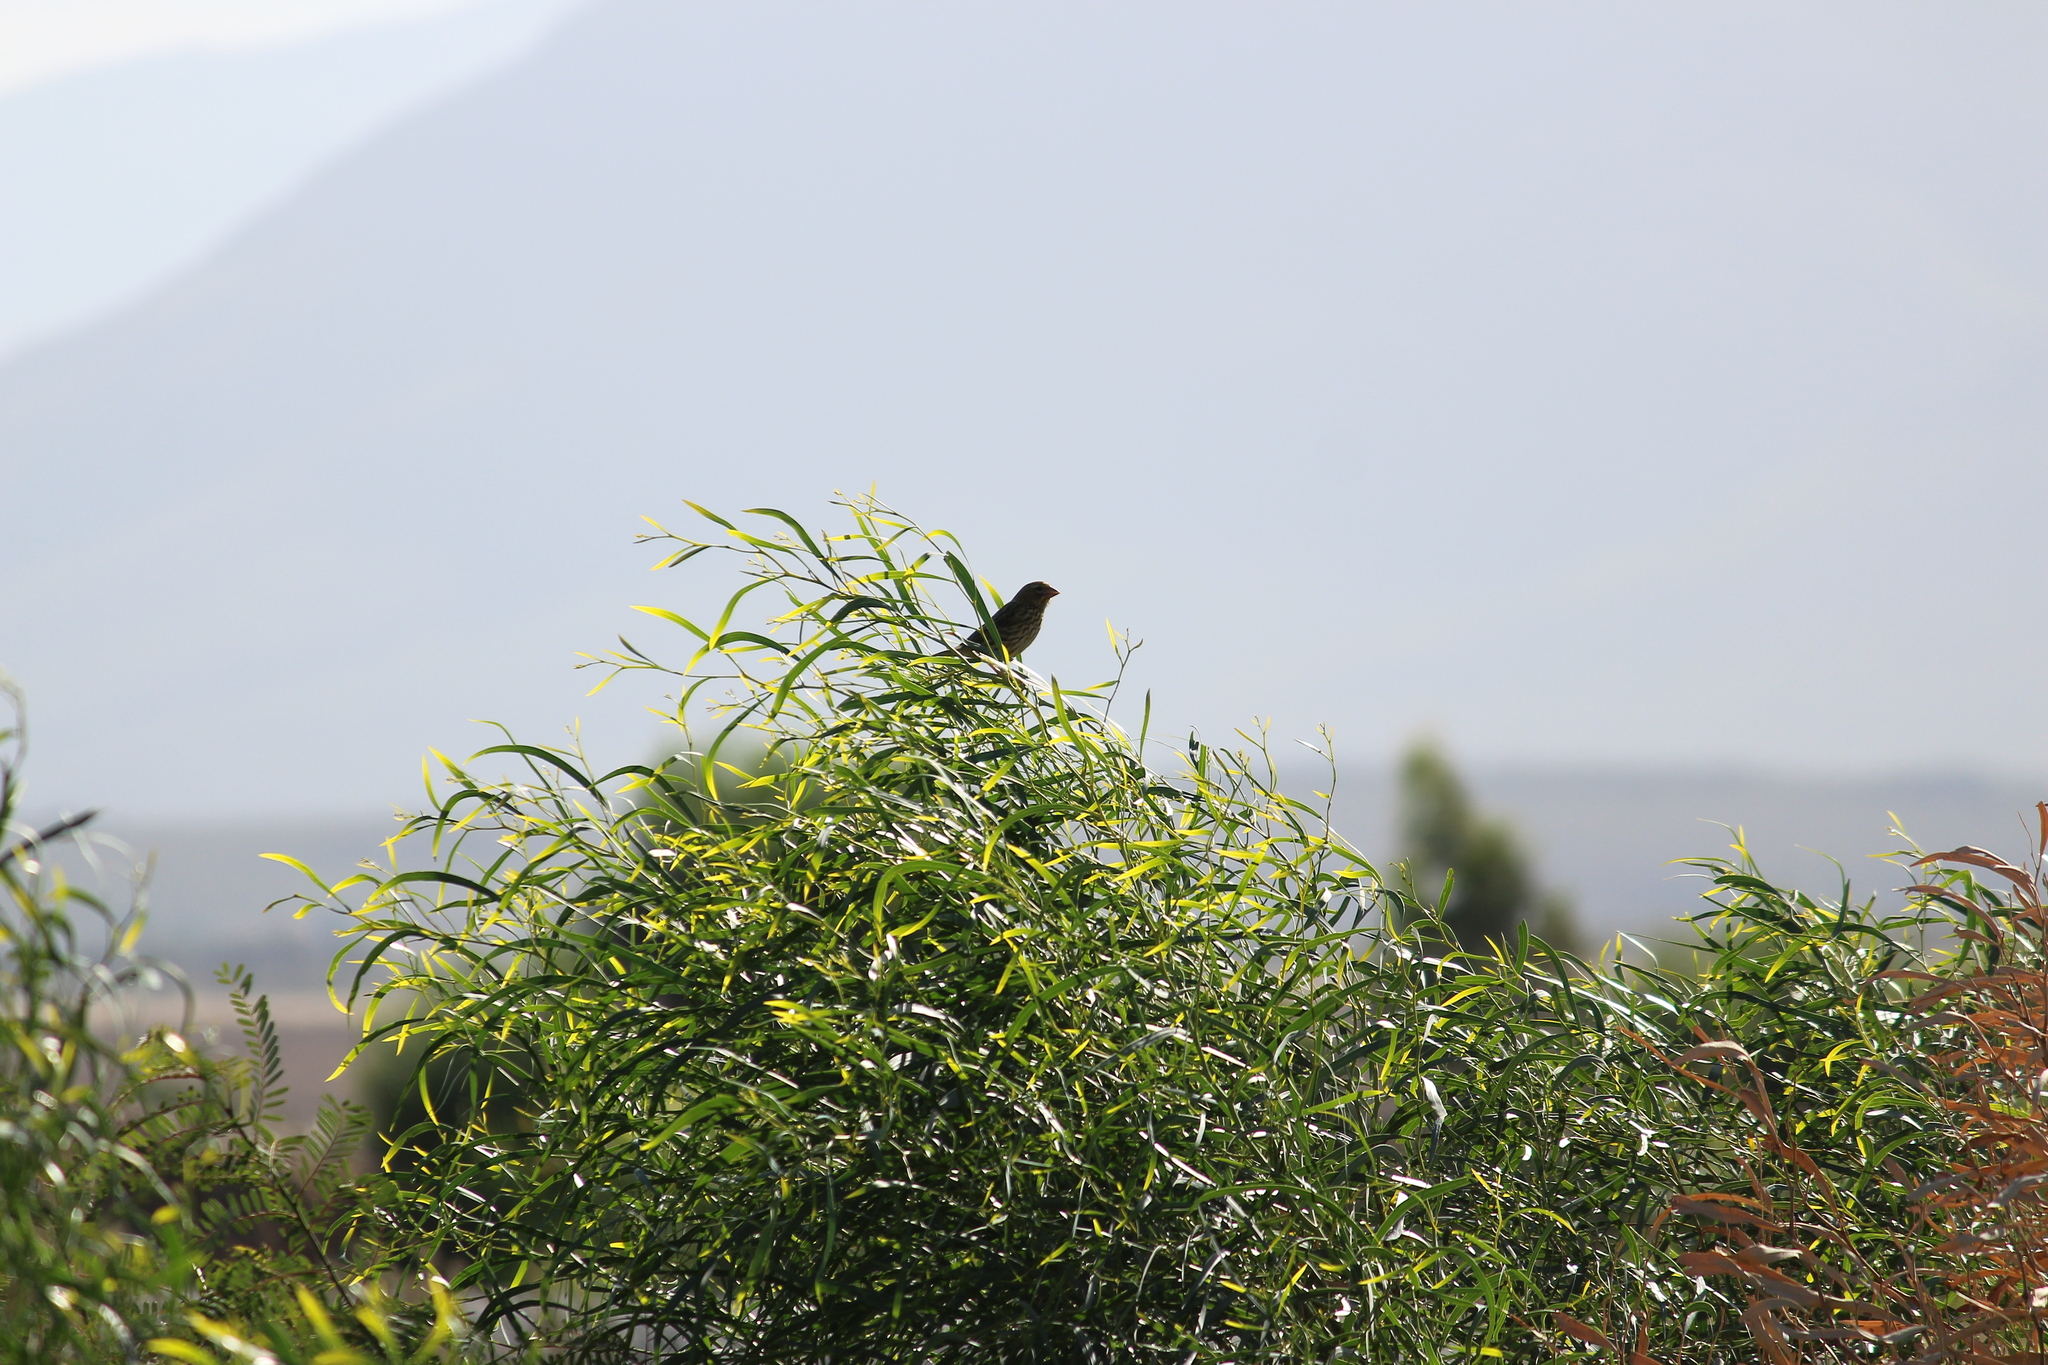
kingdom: Animalia
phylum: Chordata
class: Aves
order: Passeriformes
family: Ploceidae
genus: Euplectes
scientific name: Euplectes capensis
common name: Yellow bishop
